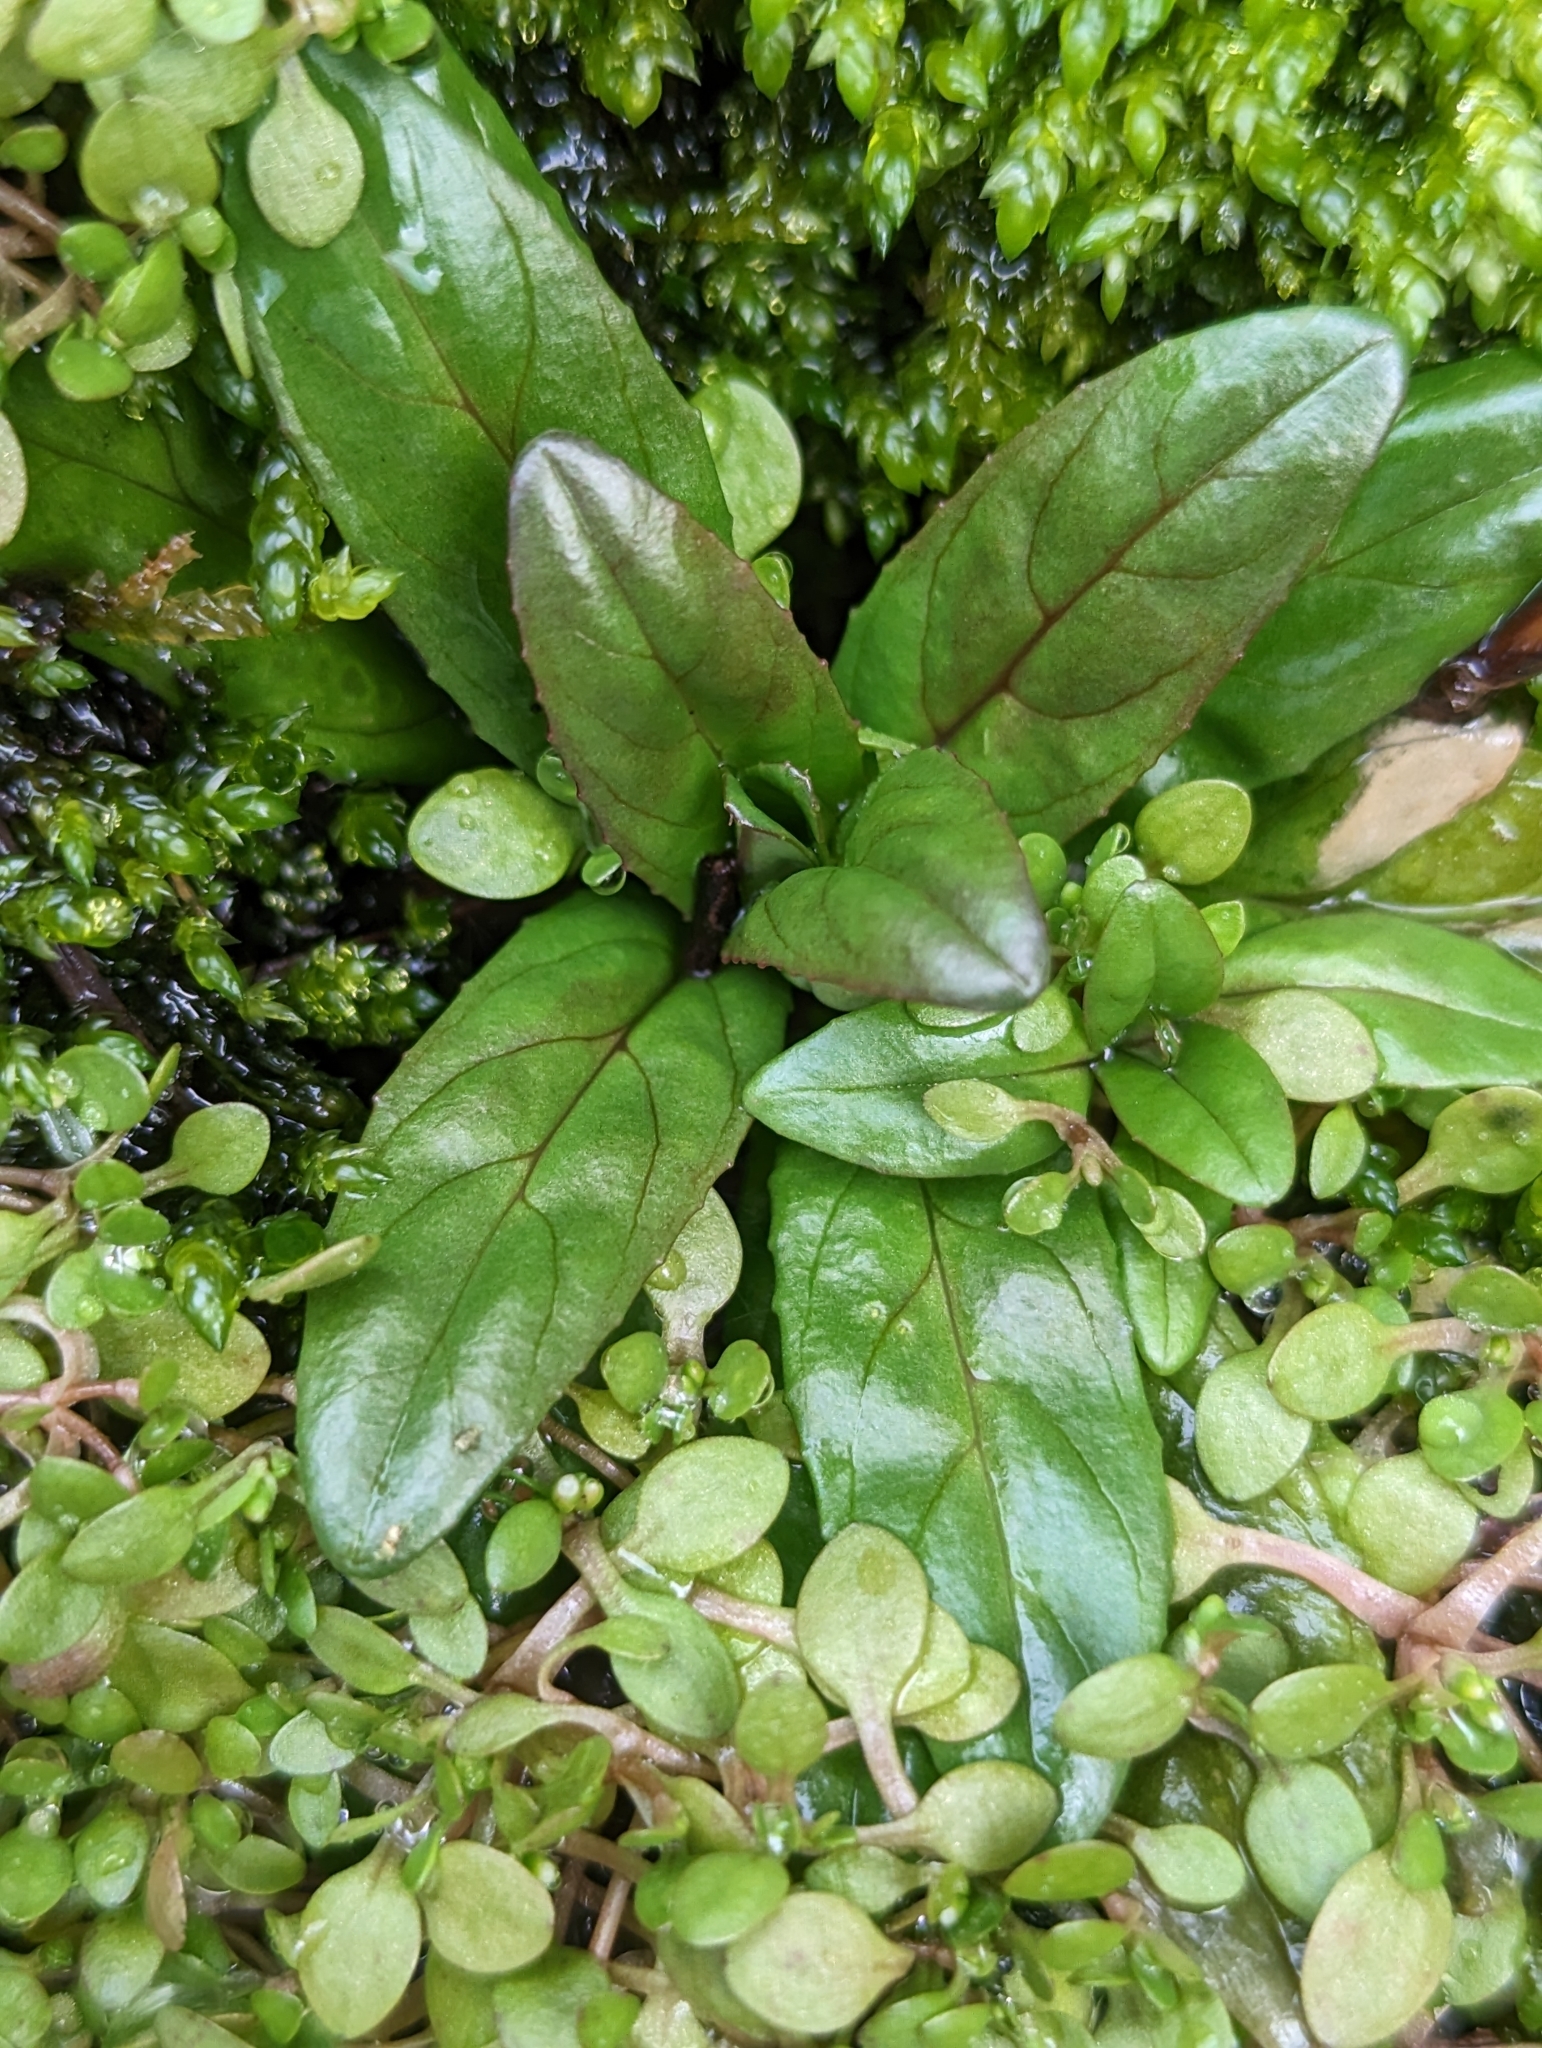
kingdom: Plantae
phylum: Tracheophyta
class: Magnoliopsida
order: Myrtales
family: Onagraceae
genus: Epilobium
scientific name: Epilobium ciliatum
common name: American willowherb
